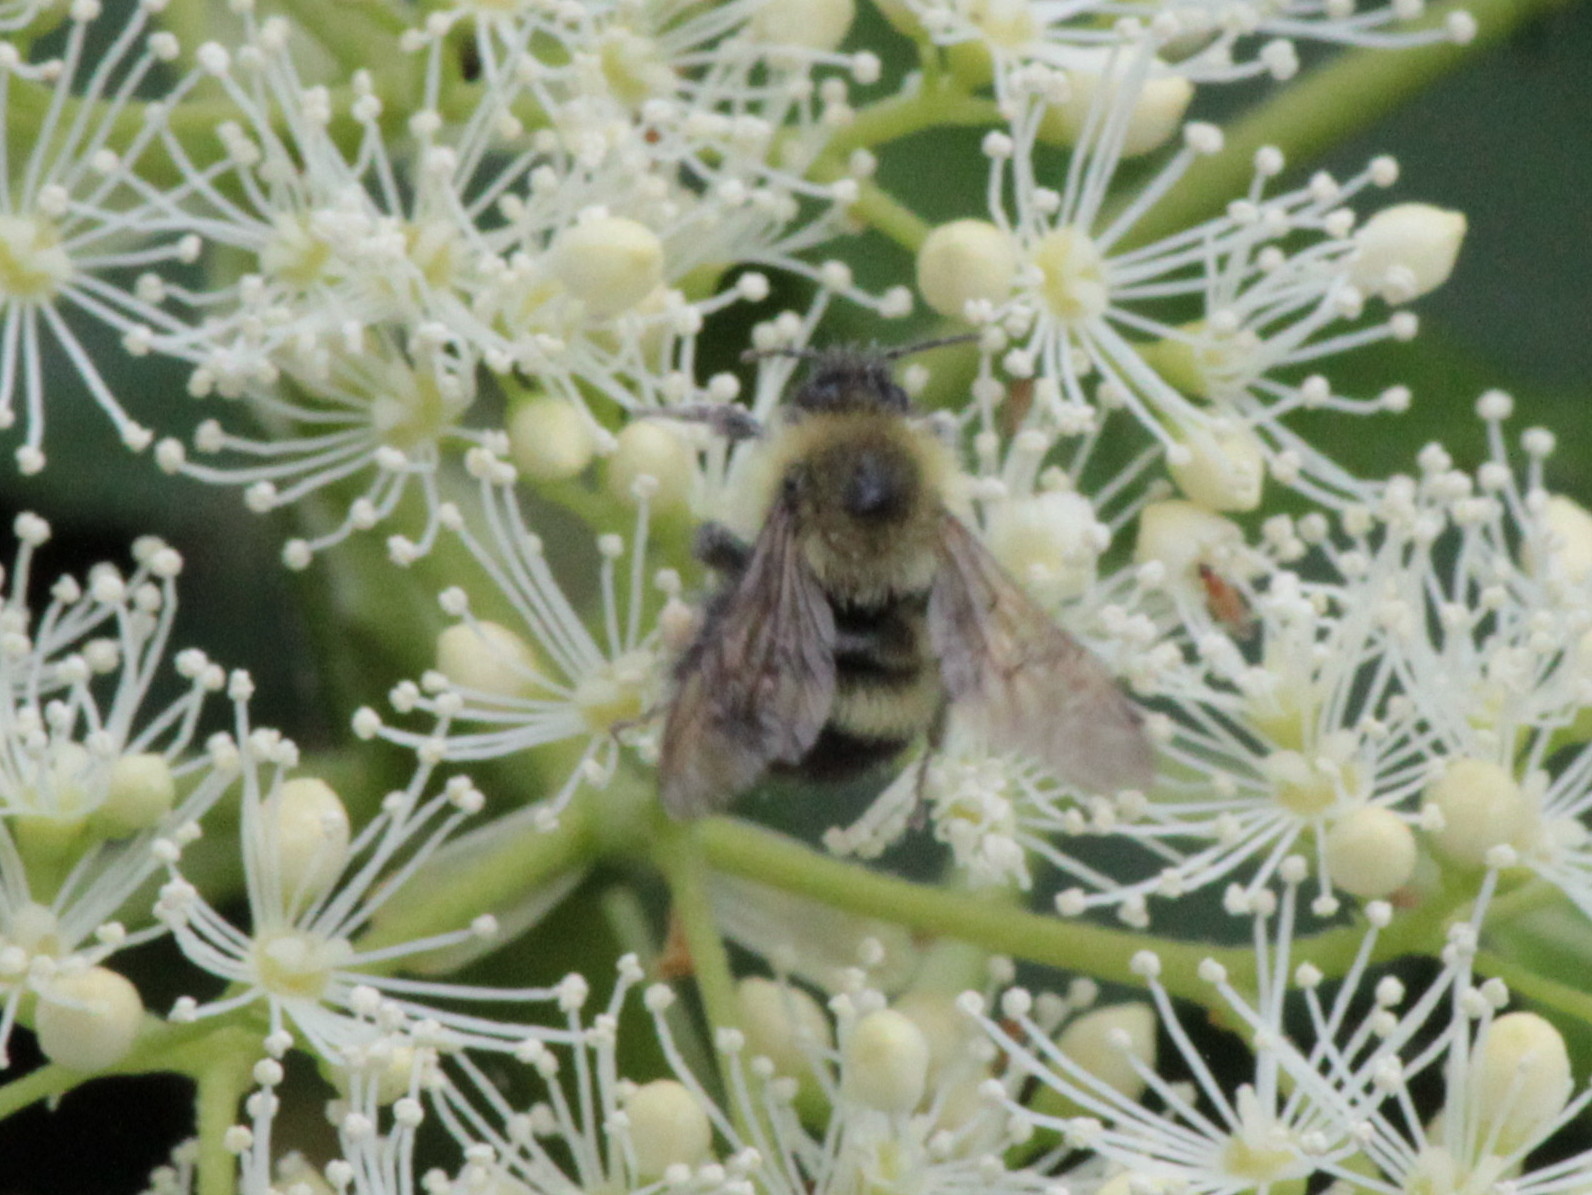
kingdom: Animalia
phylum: Arthropoda
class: Insecta
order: Hymenoptera
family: Apidae
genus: Pyrobombus
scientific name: Pyrobombus
